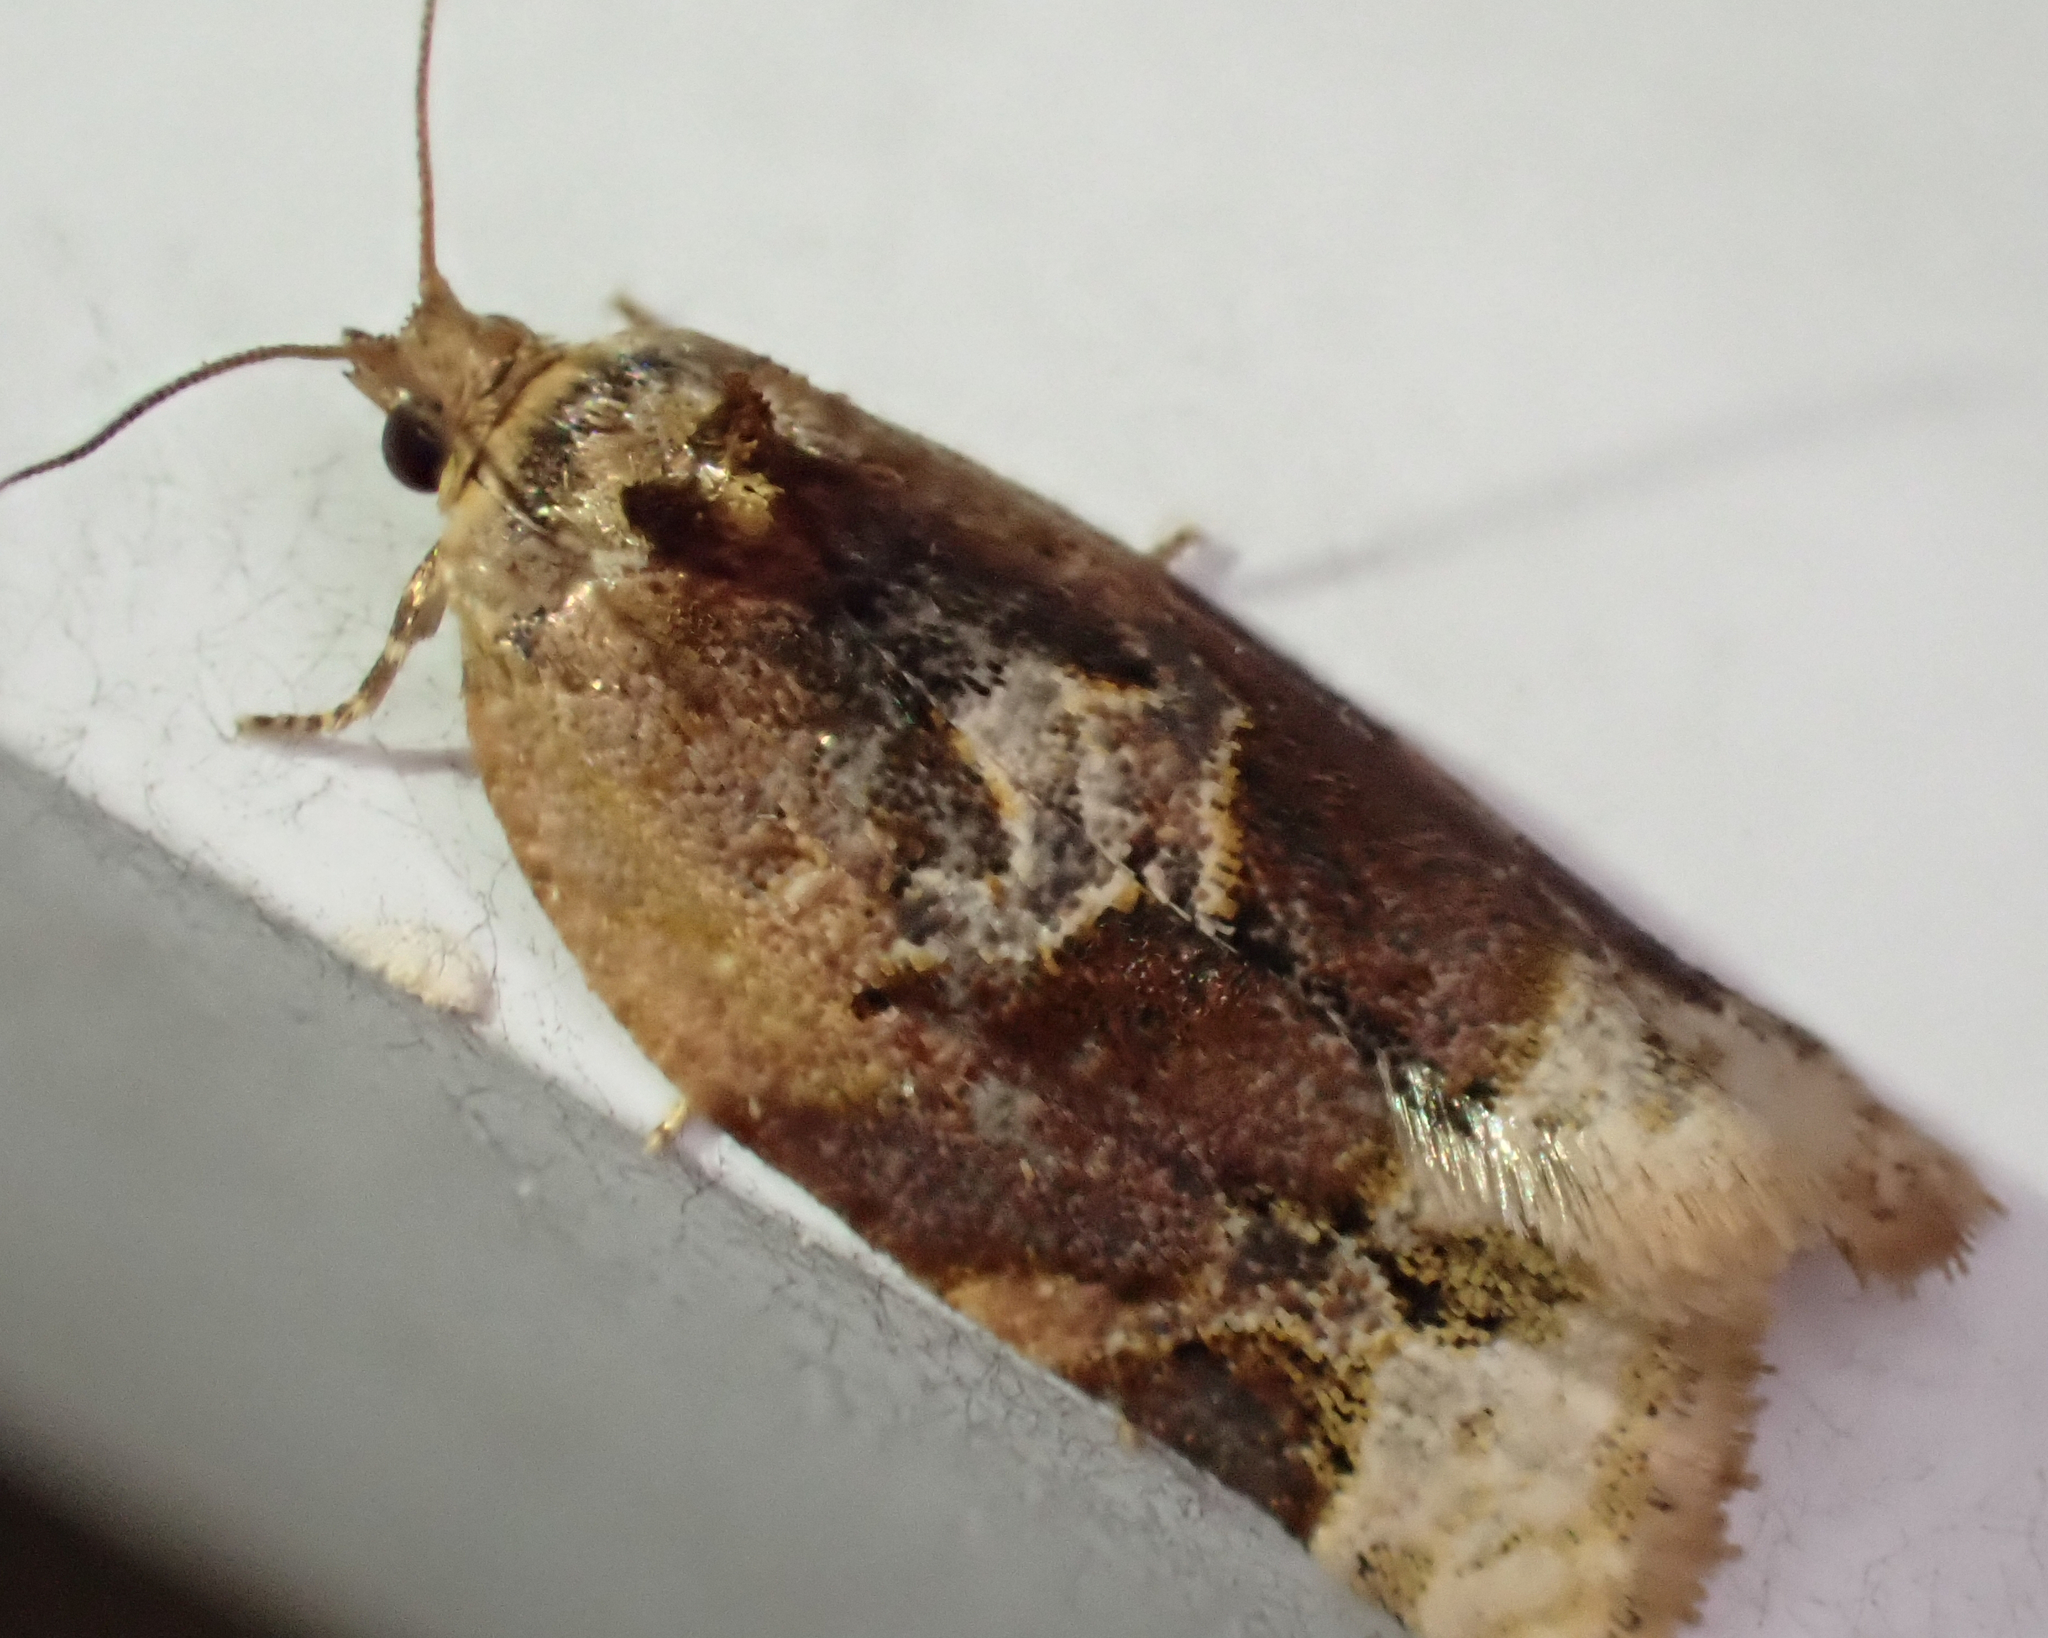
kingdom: Animalia
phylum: Arthropoda
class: Insecta
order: Lepidoptera
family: Tortricidae
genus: Argyrotaenia
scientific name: Argyrotaenia velutinana
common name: Red-banded leafroller moth
